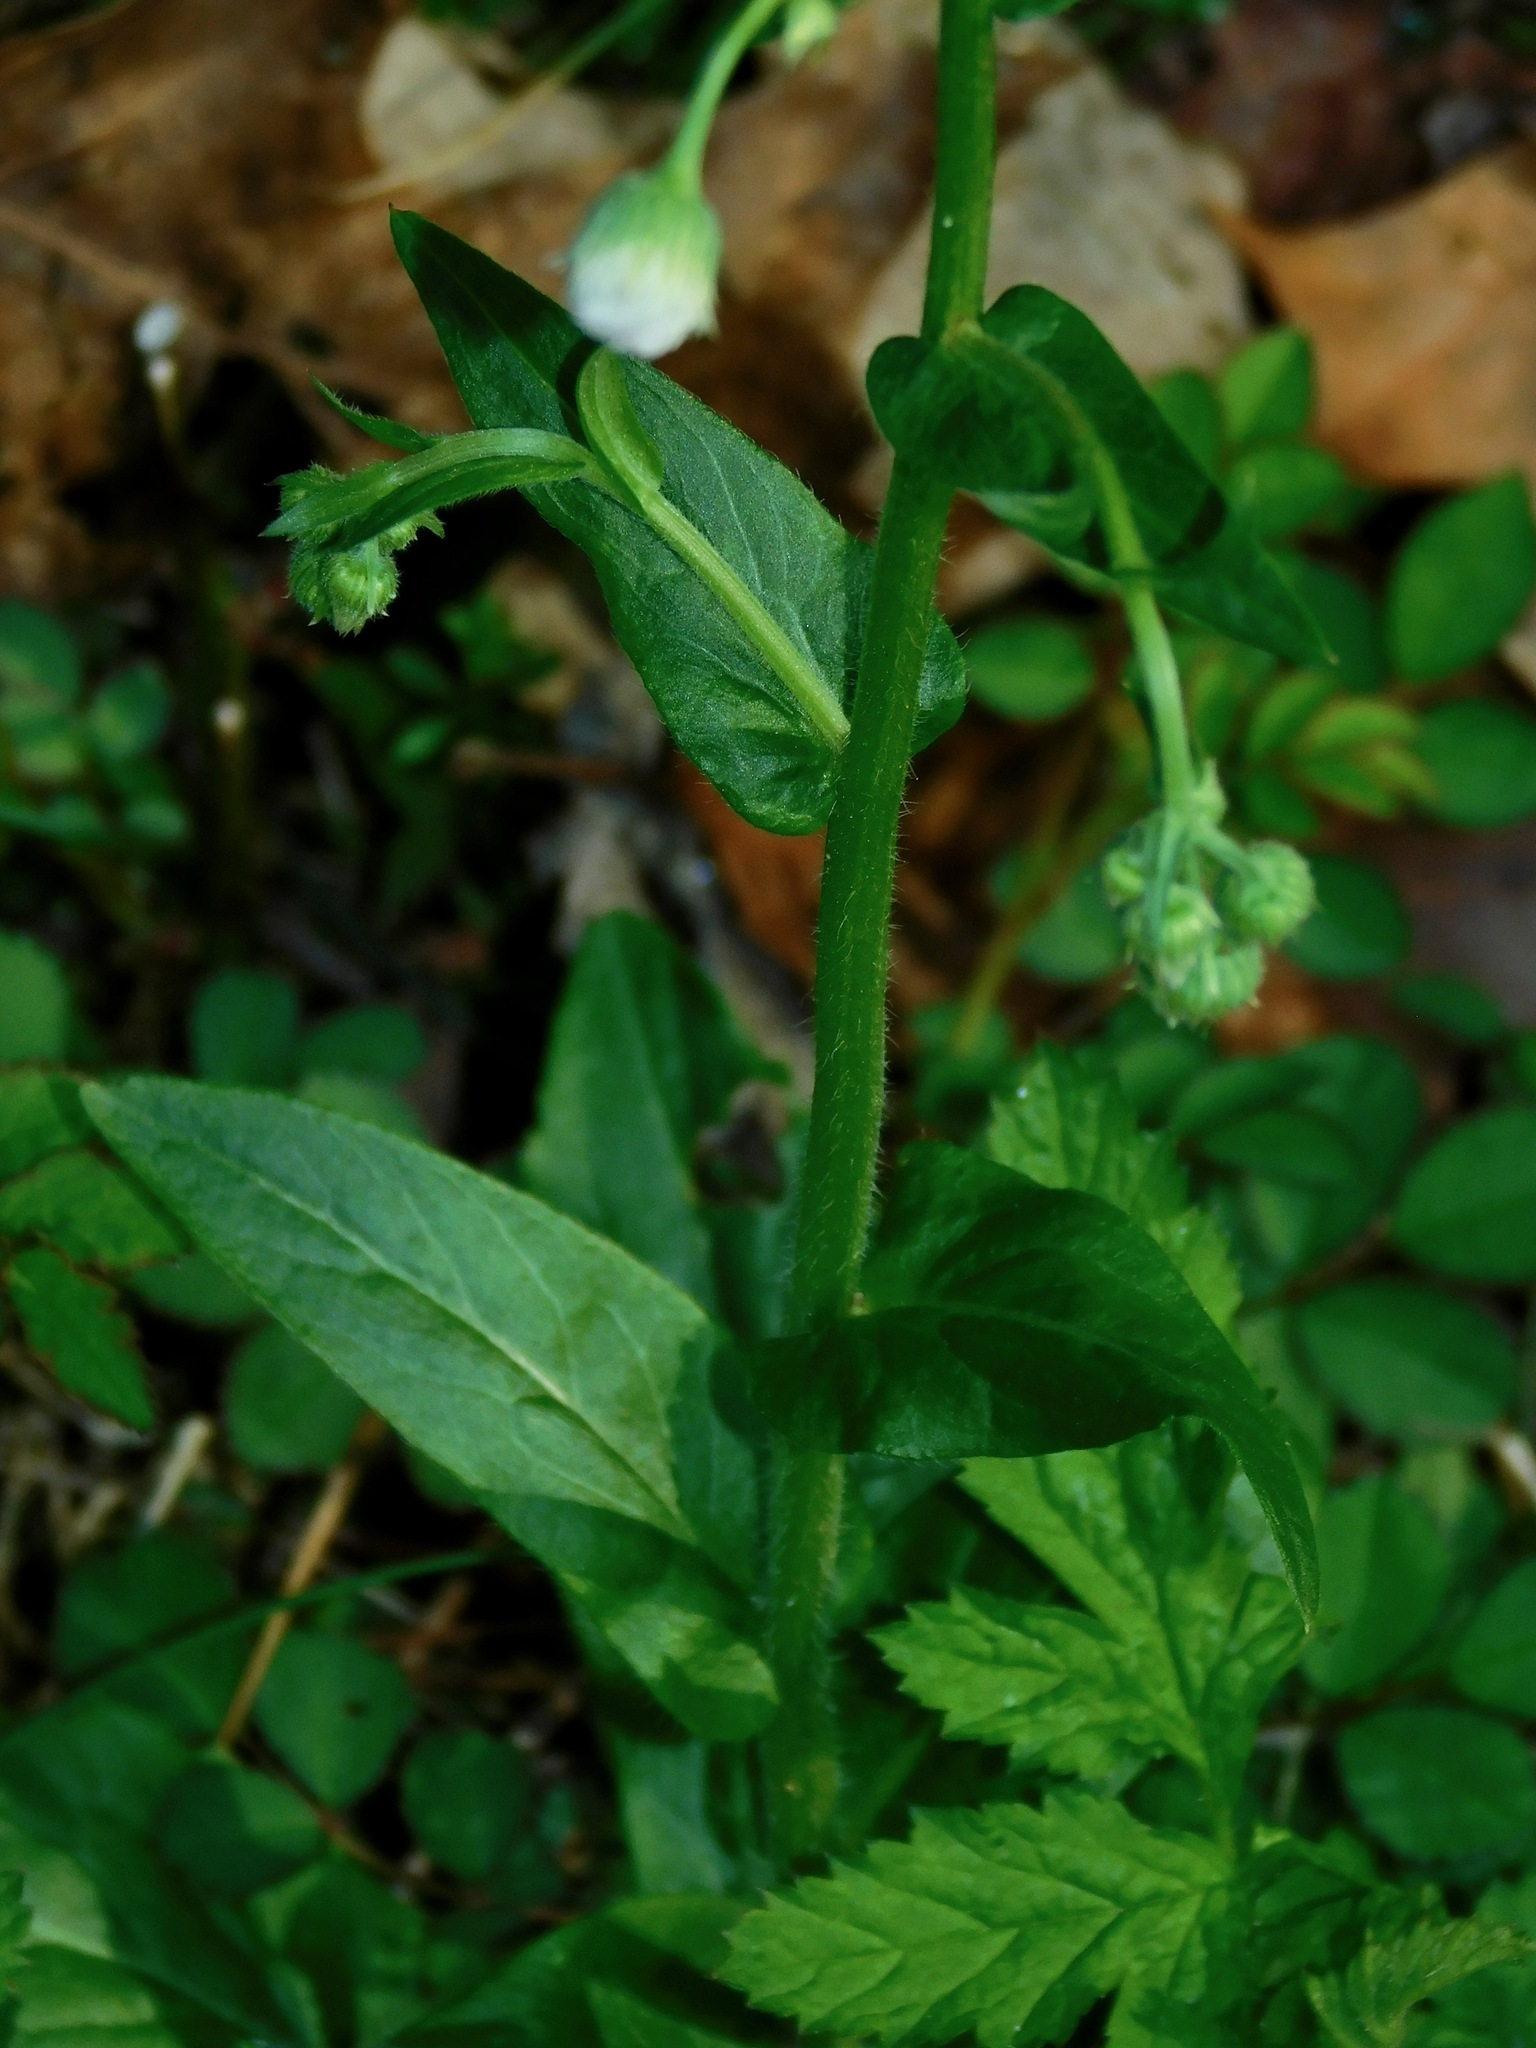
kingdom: Plantae
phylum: Tracheophyta
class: Magnoliopsida
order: Asterales
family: Asteraceae
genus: Erigeron
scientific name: Erigeron philadelphicus
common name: Robin's-plantain
